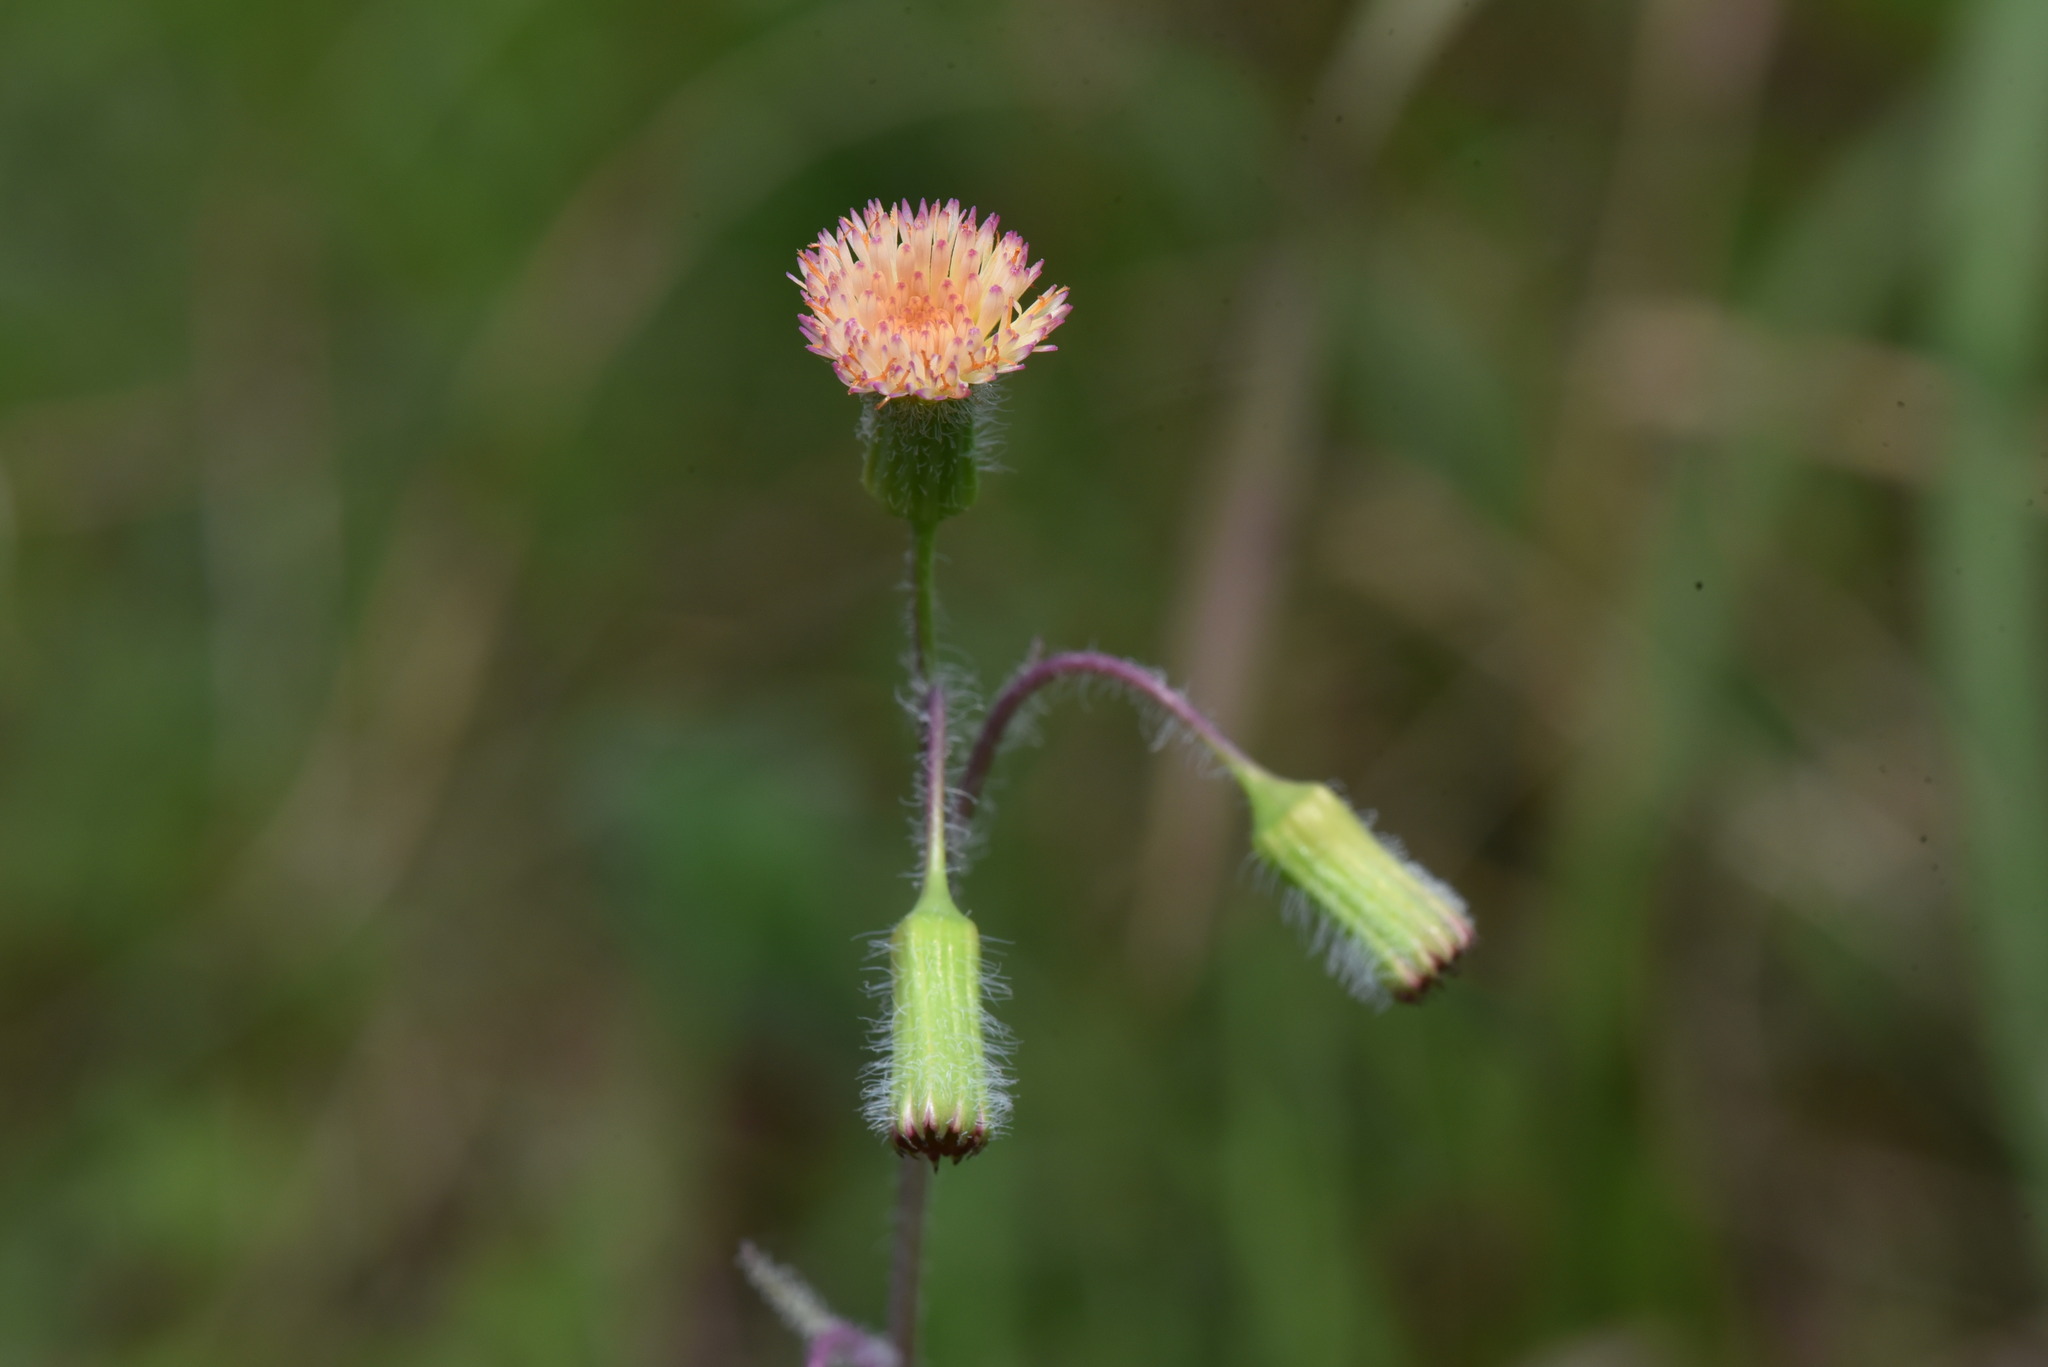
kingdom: Plantae
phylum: Tracheophyta
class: Magnoliopsida
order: Asterales
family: Asteraceae
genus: Emilia
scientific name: Emilia praetermissa
